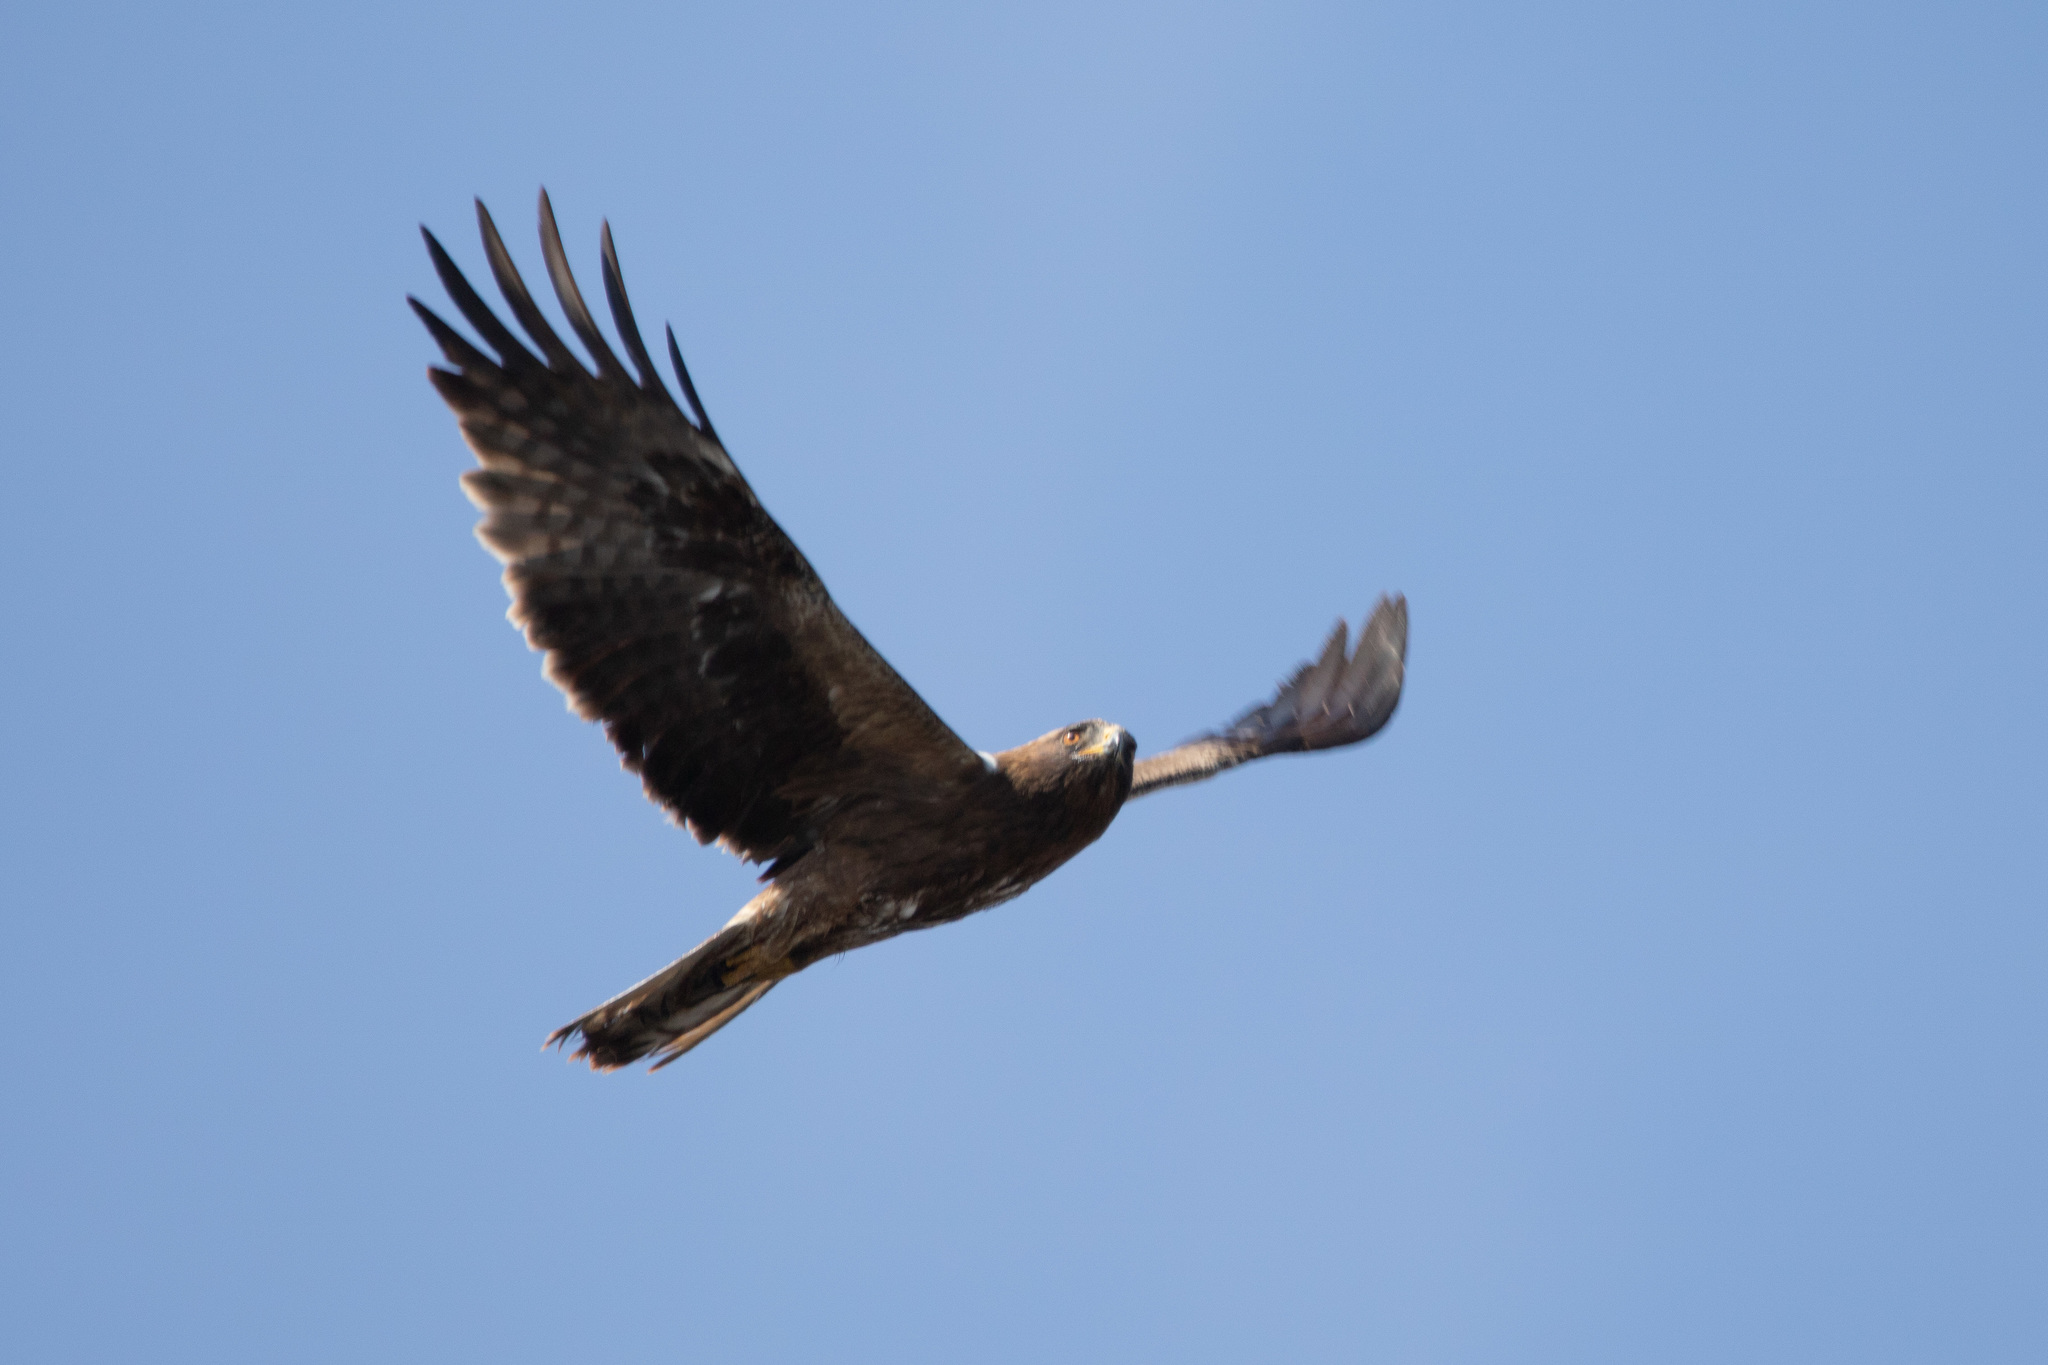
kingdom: Animalia
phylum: Chordata
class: Aves
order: Accipitriformes
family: Accipitridae
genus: Hieraaetus
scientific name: Hieraaetus pennatus
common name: Booted eagle
